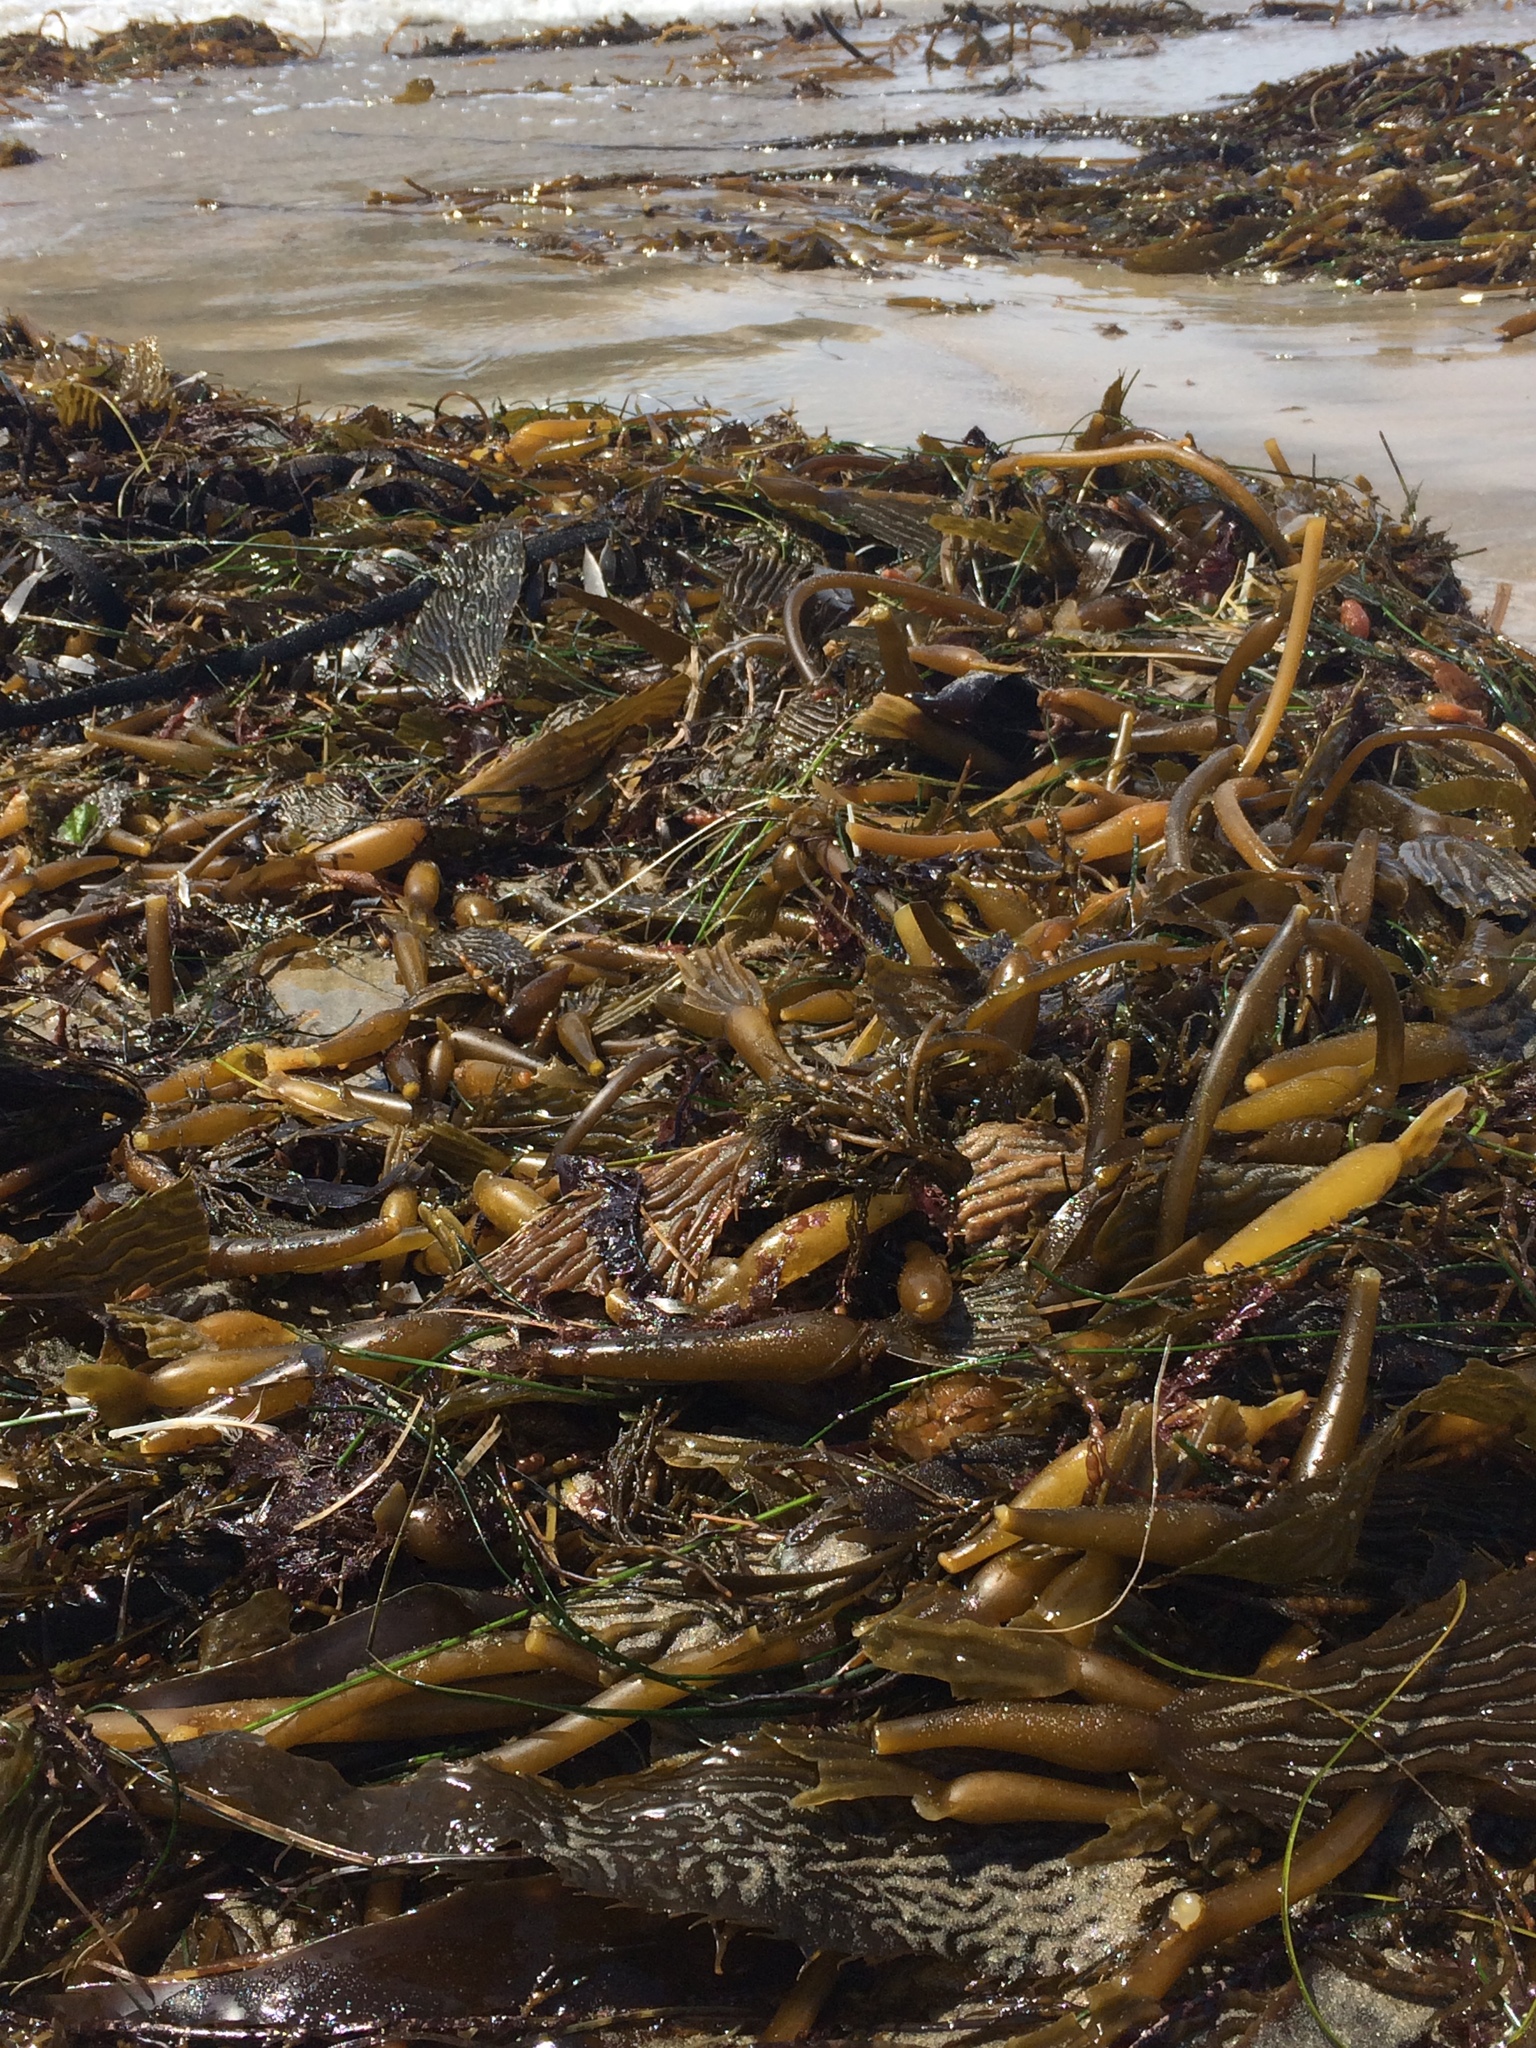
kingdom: Chromista
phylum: Ochrophyta
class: Phaeophyceae
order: Laminariales
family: Laminariaceae
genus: Macrocystis
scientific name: Macrocystis pyrifera
